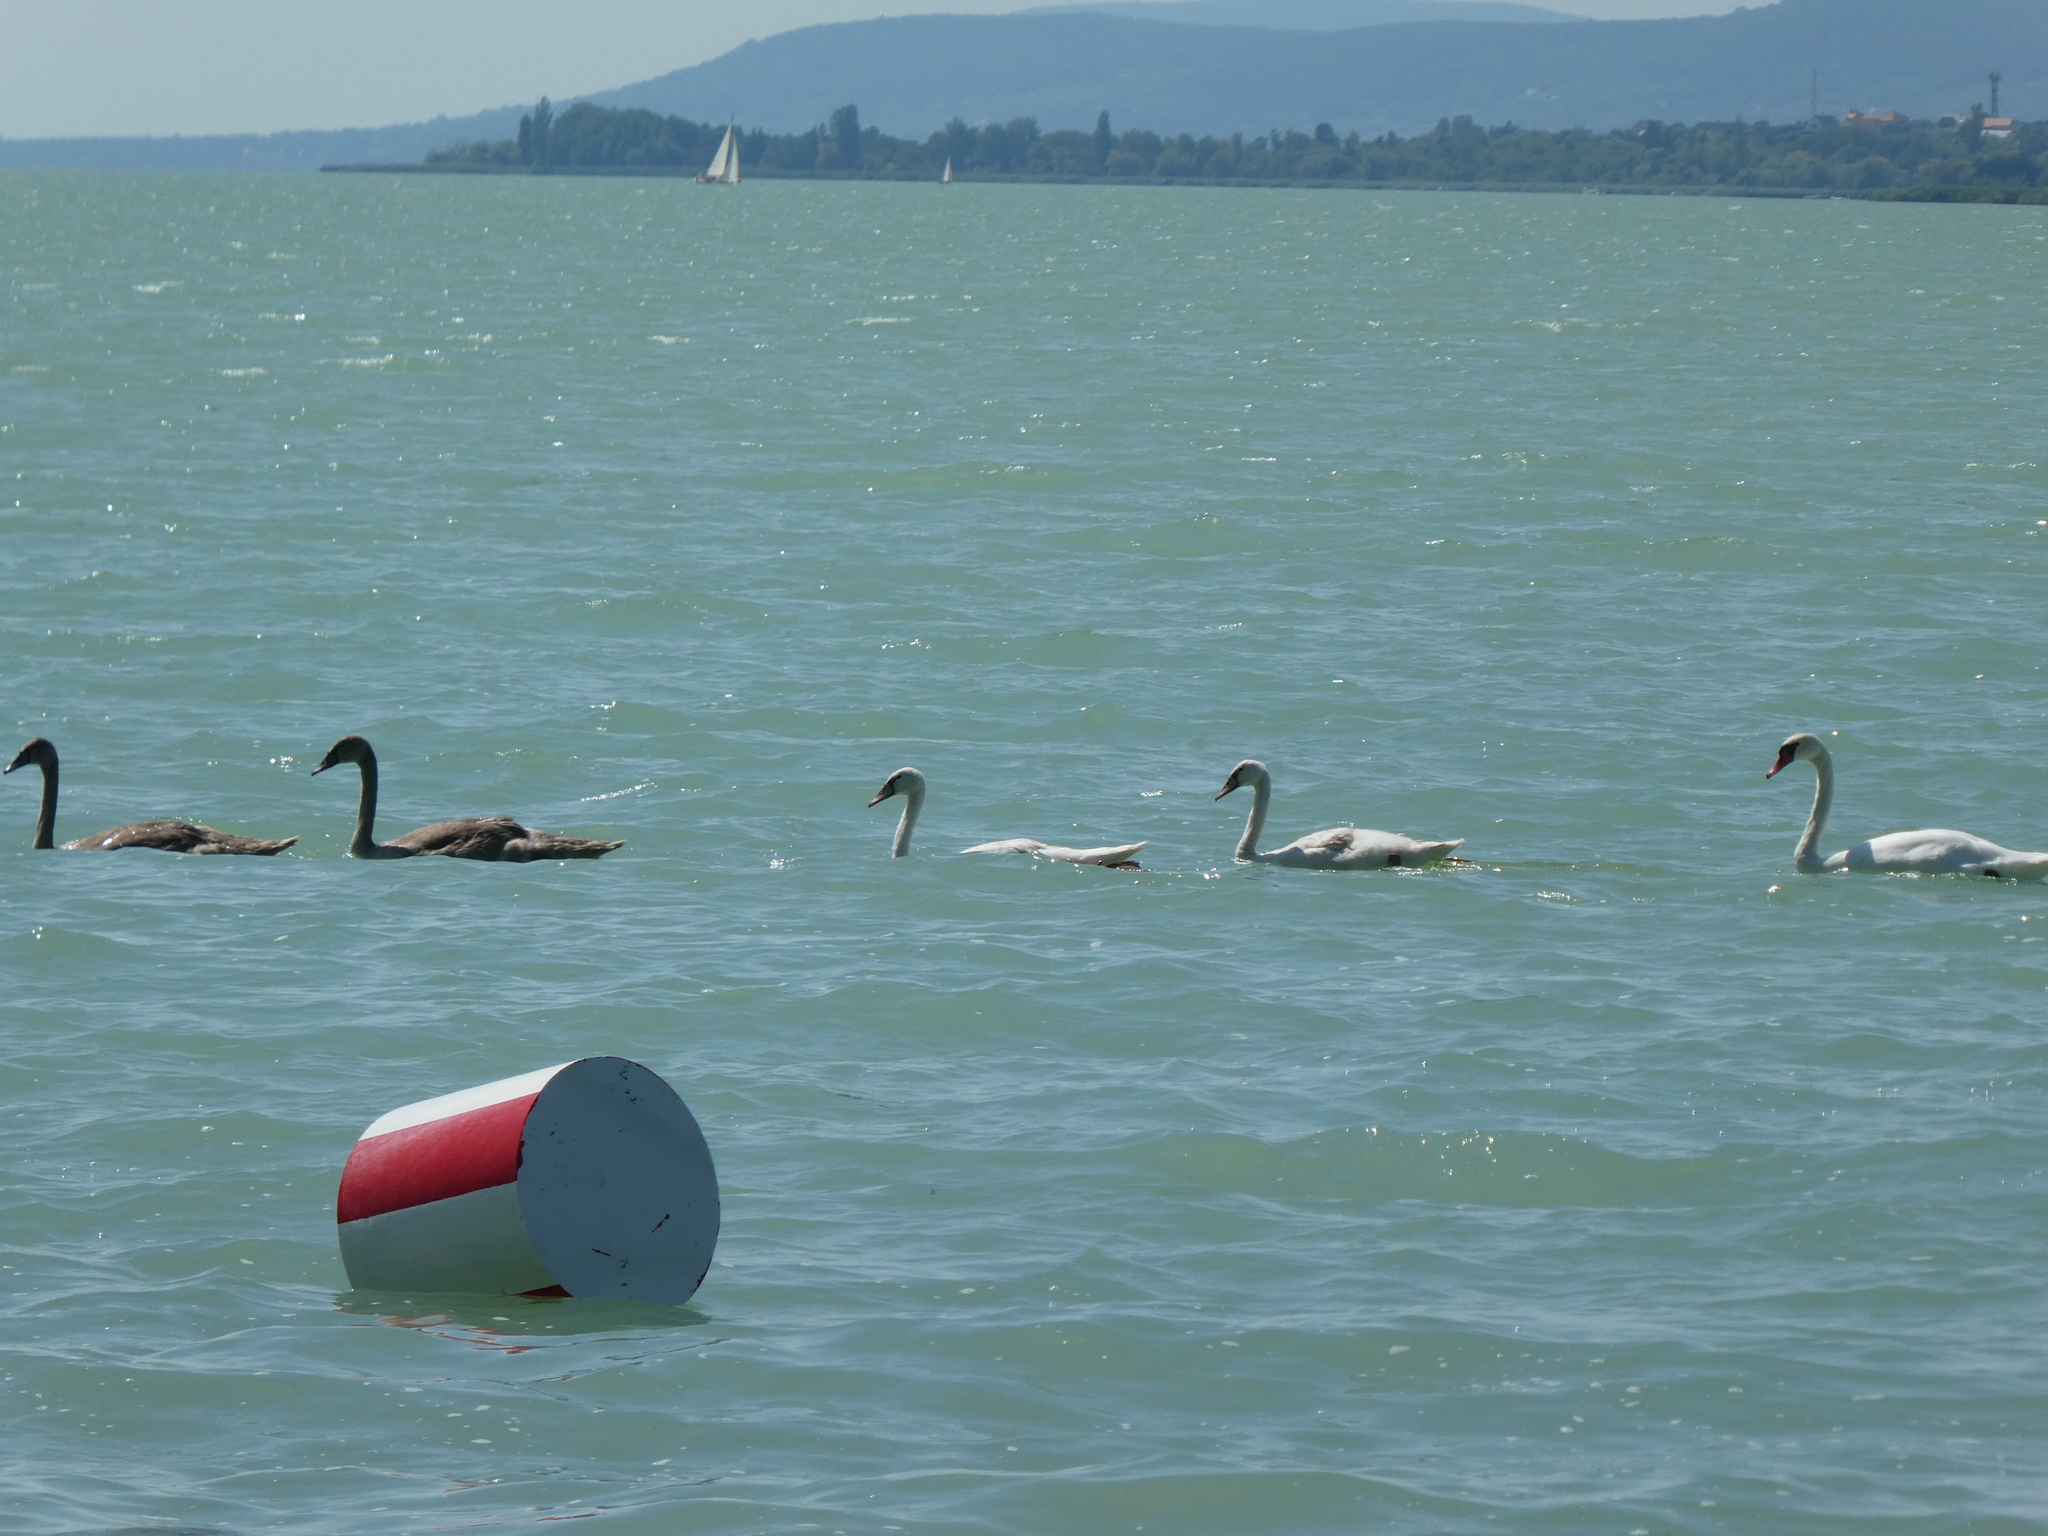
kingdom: Animalia
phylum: Chordata
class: Aves
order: Anseriformes
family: Anatidae
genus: Cygnus
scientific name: Cygnus olor
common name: Mute swan
